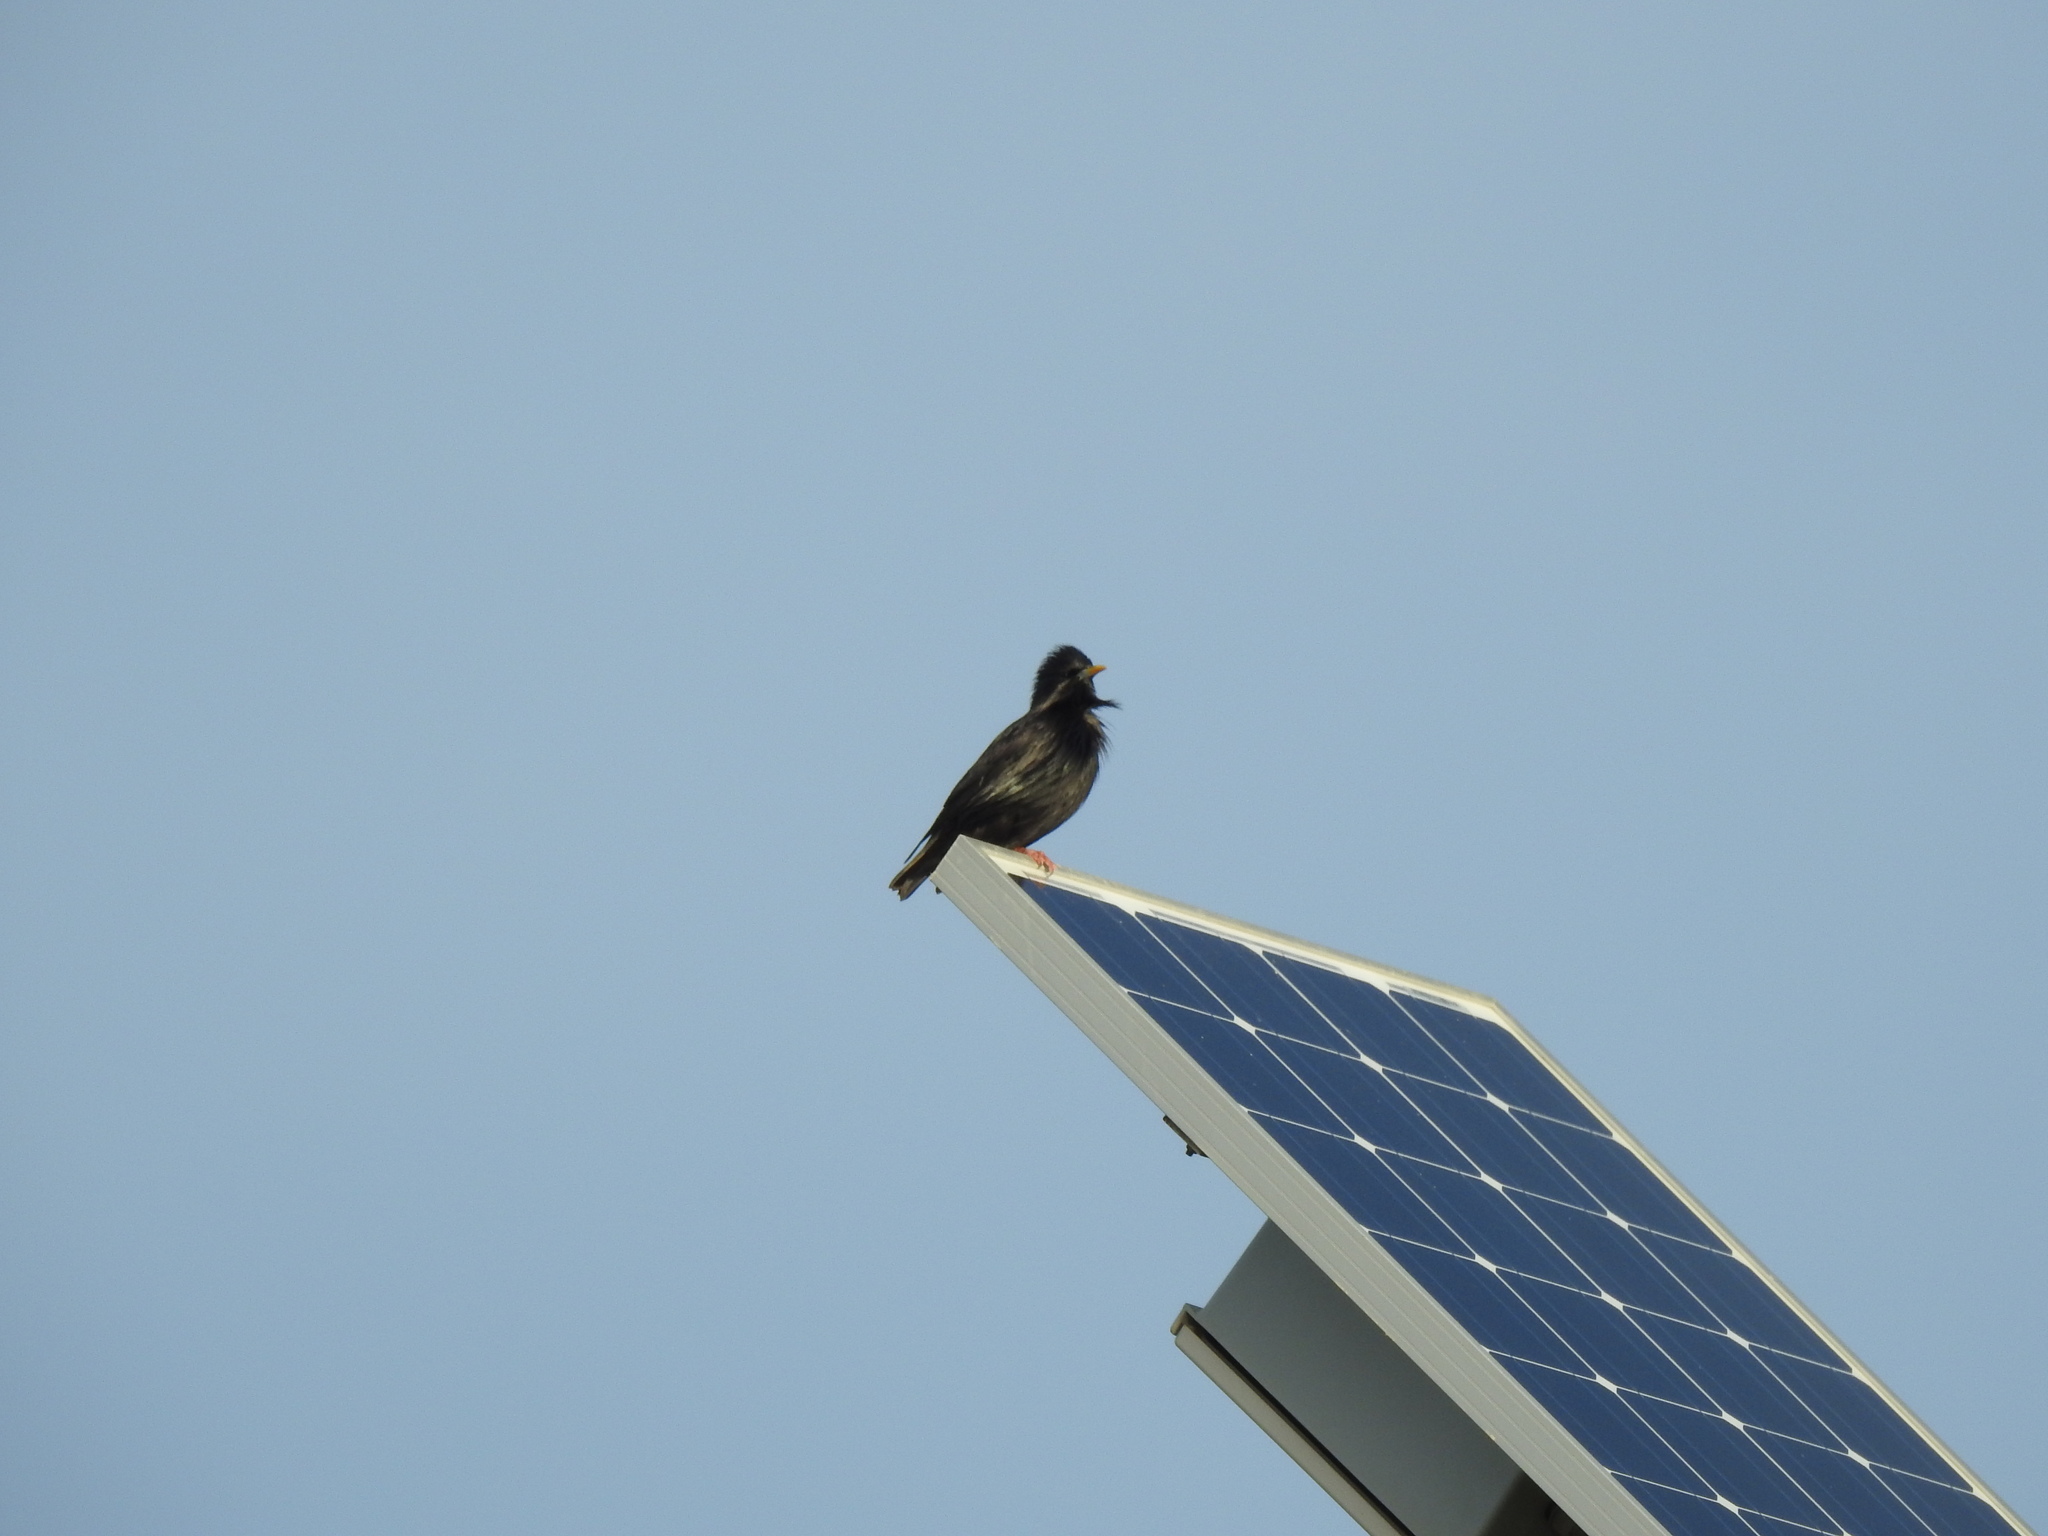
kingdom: Animalia
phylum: Chordata
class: Aves
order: Passeriformes
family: Sturnidae
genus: Sturnus
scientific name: Sturnus unicolor
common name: Spotless starling
